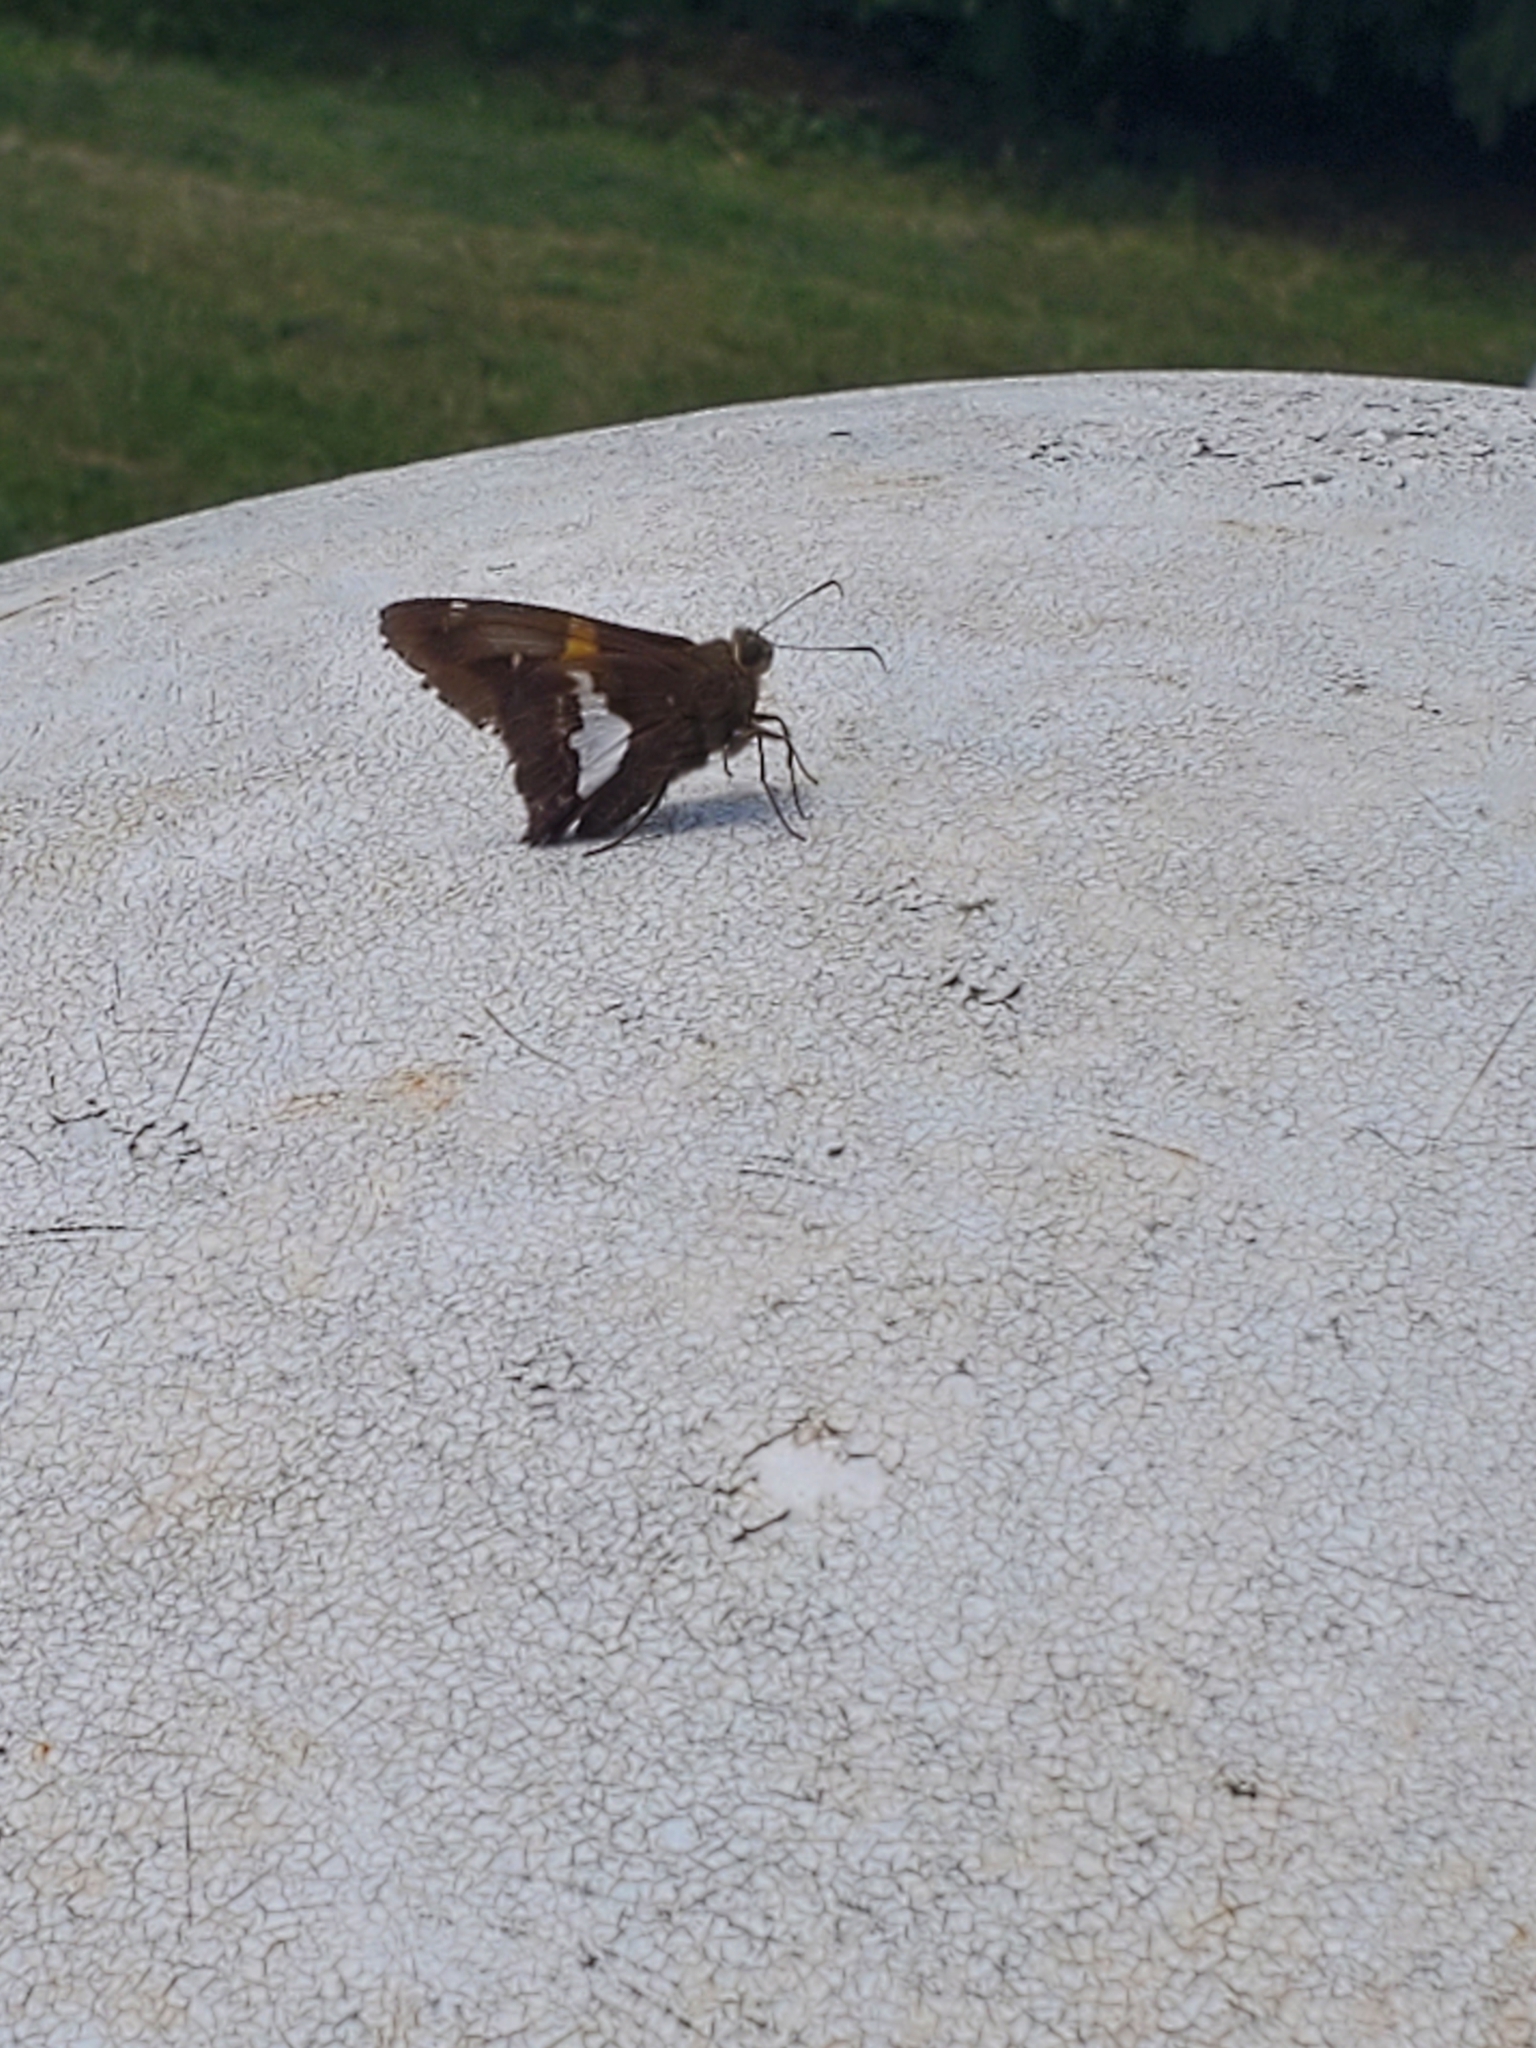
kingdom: Animalia
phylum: Arthropoda
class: Insecta
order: Lepidoptera
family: Hesperiidae
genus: Epargyreus
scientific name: Epargyreus clarus
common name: Silver-spotted skipper
